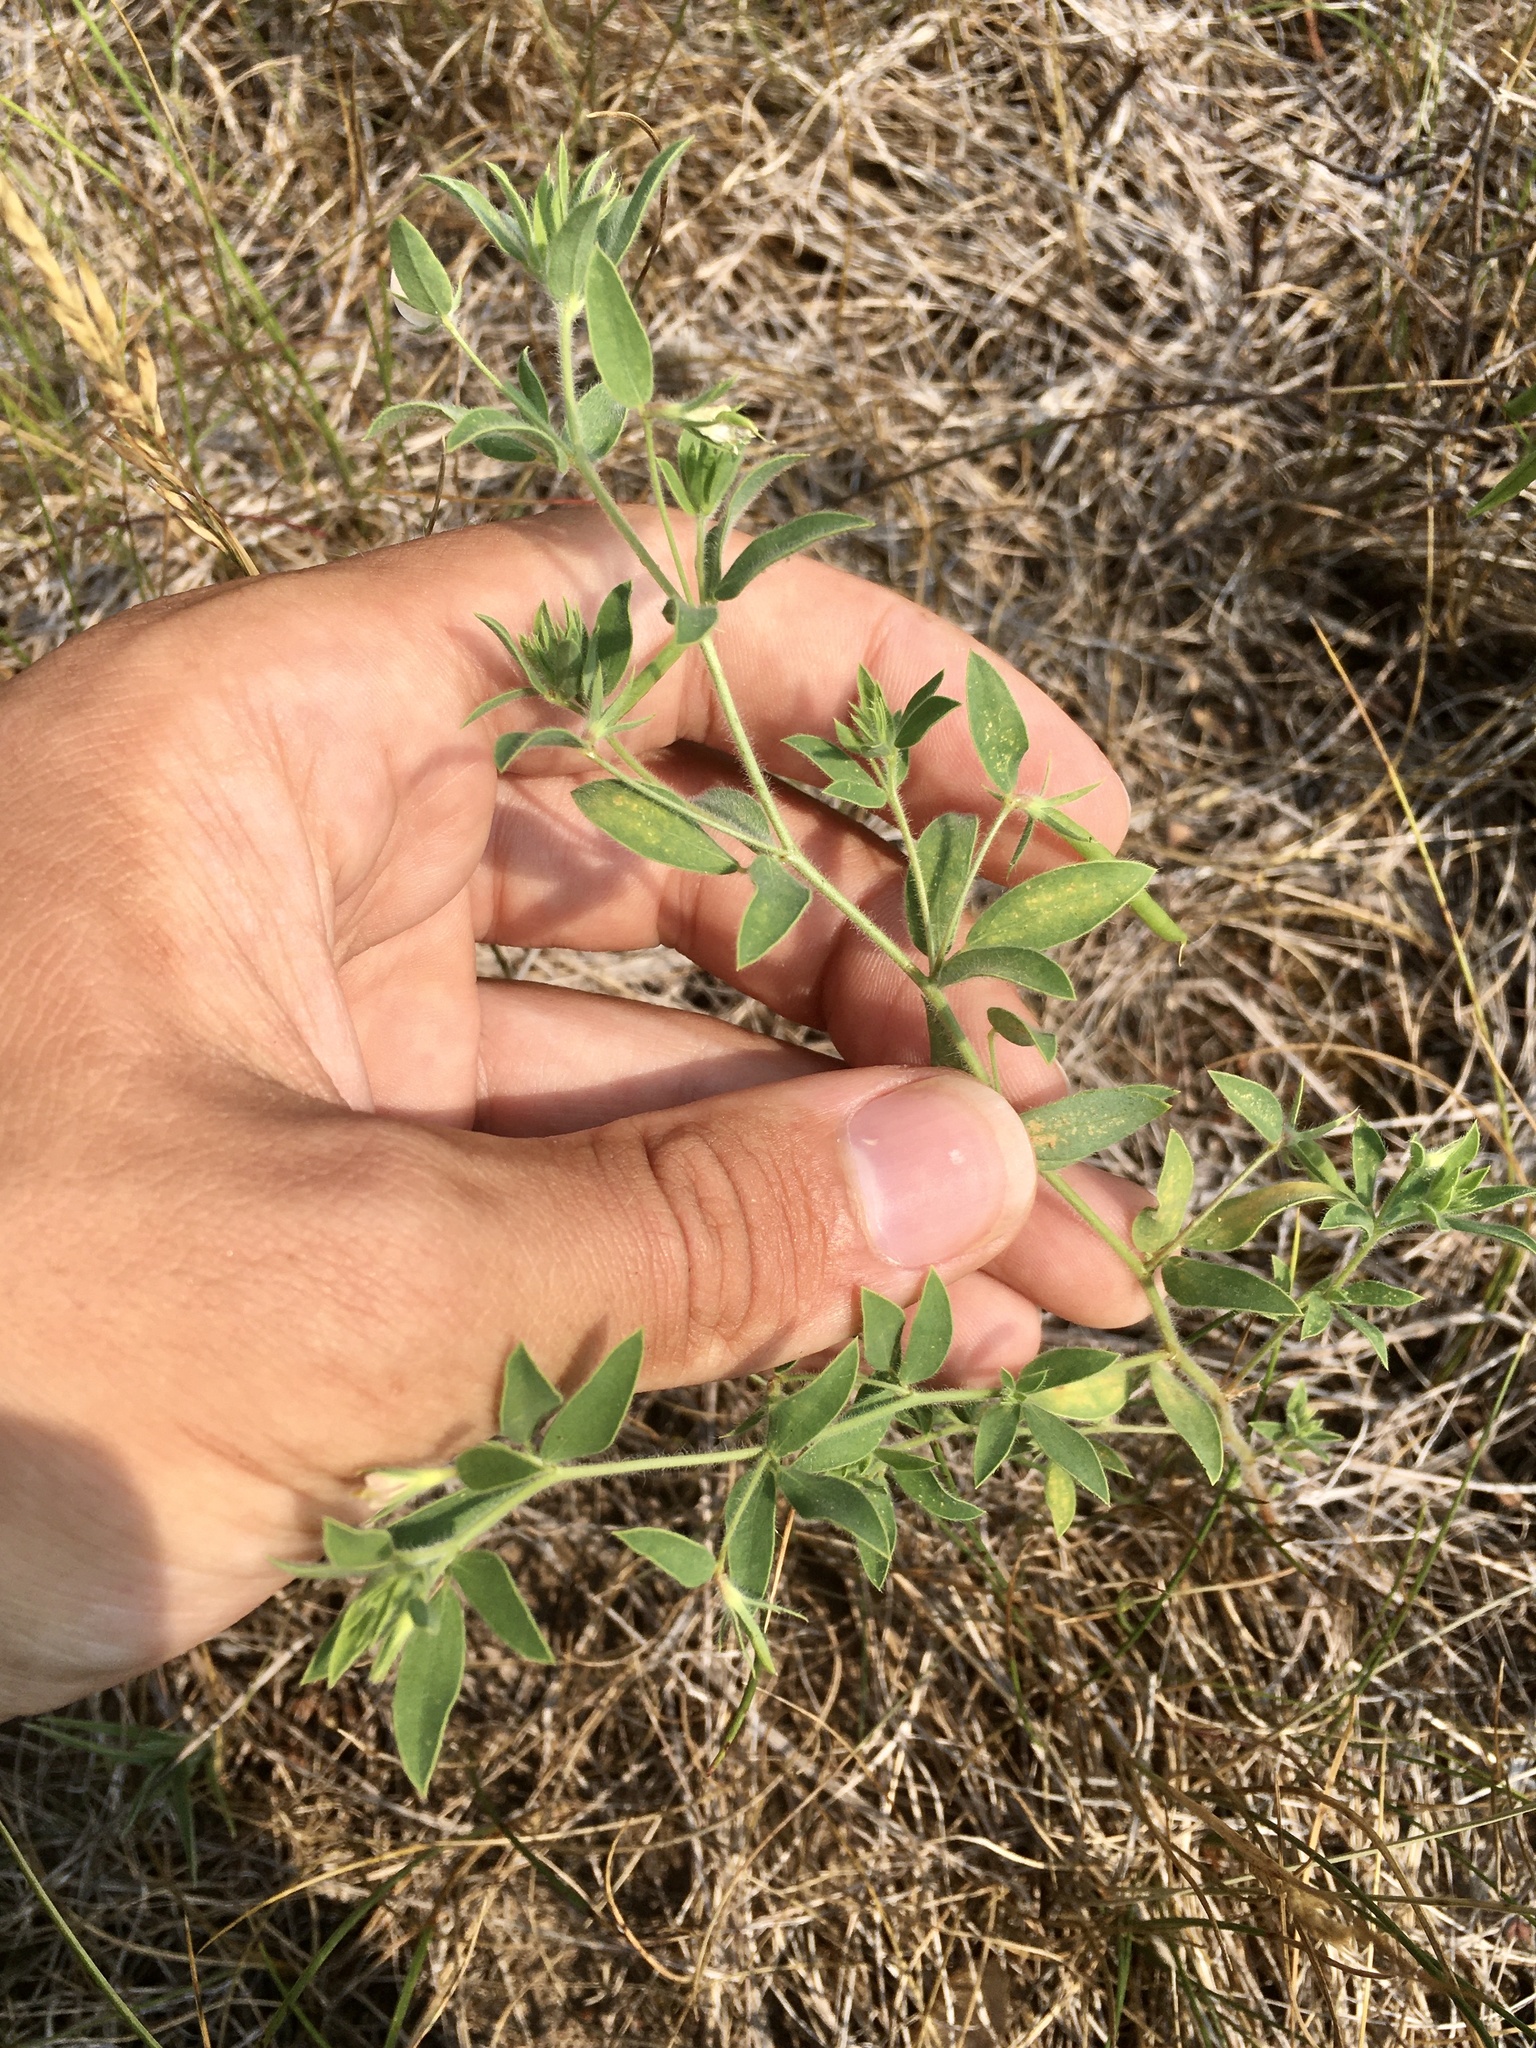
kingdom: Plantae
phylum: Tracheophyta
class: Magnoliopsida
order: Fabales
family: Fabaceae
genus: Acmispon
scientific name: Acmispon americanus
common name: American bird's-foot trefoil
